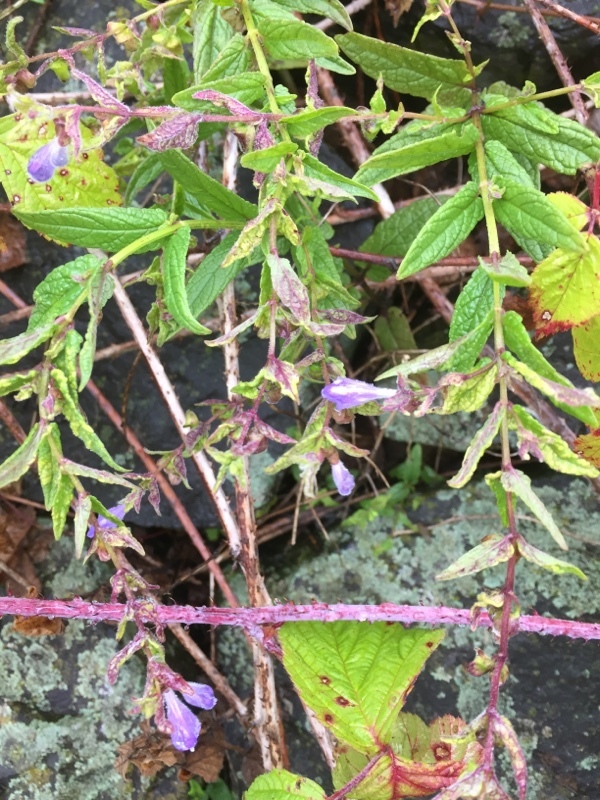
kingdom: Plantae
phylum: Tracheophyta
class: Magnoliopsida
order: Lamiales
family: Lamiaceae
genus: Scutellaria
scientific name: Scutellaria galericulata
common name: Skullcap
